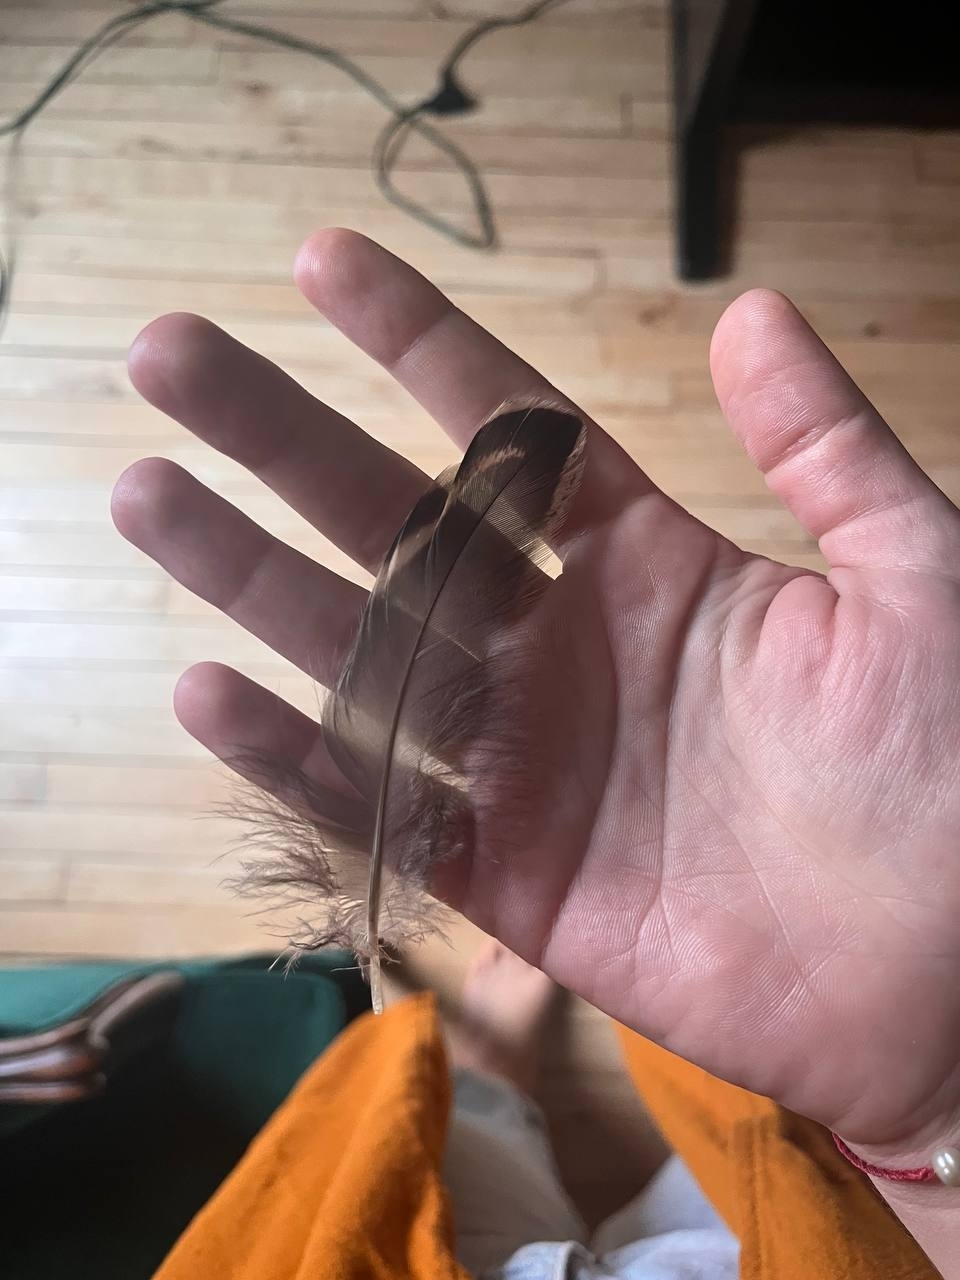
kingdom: Animalia
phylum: Chordata
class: Aves
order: Anseriformes
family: Anatidae
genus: Anas
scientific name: Anas platyrhynchos
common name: Mallard
